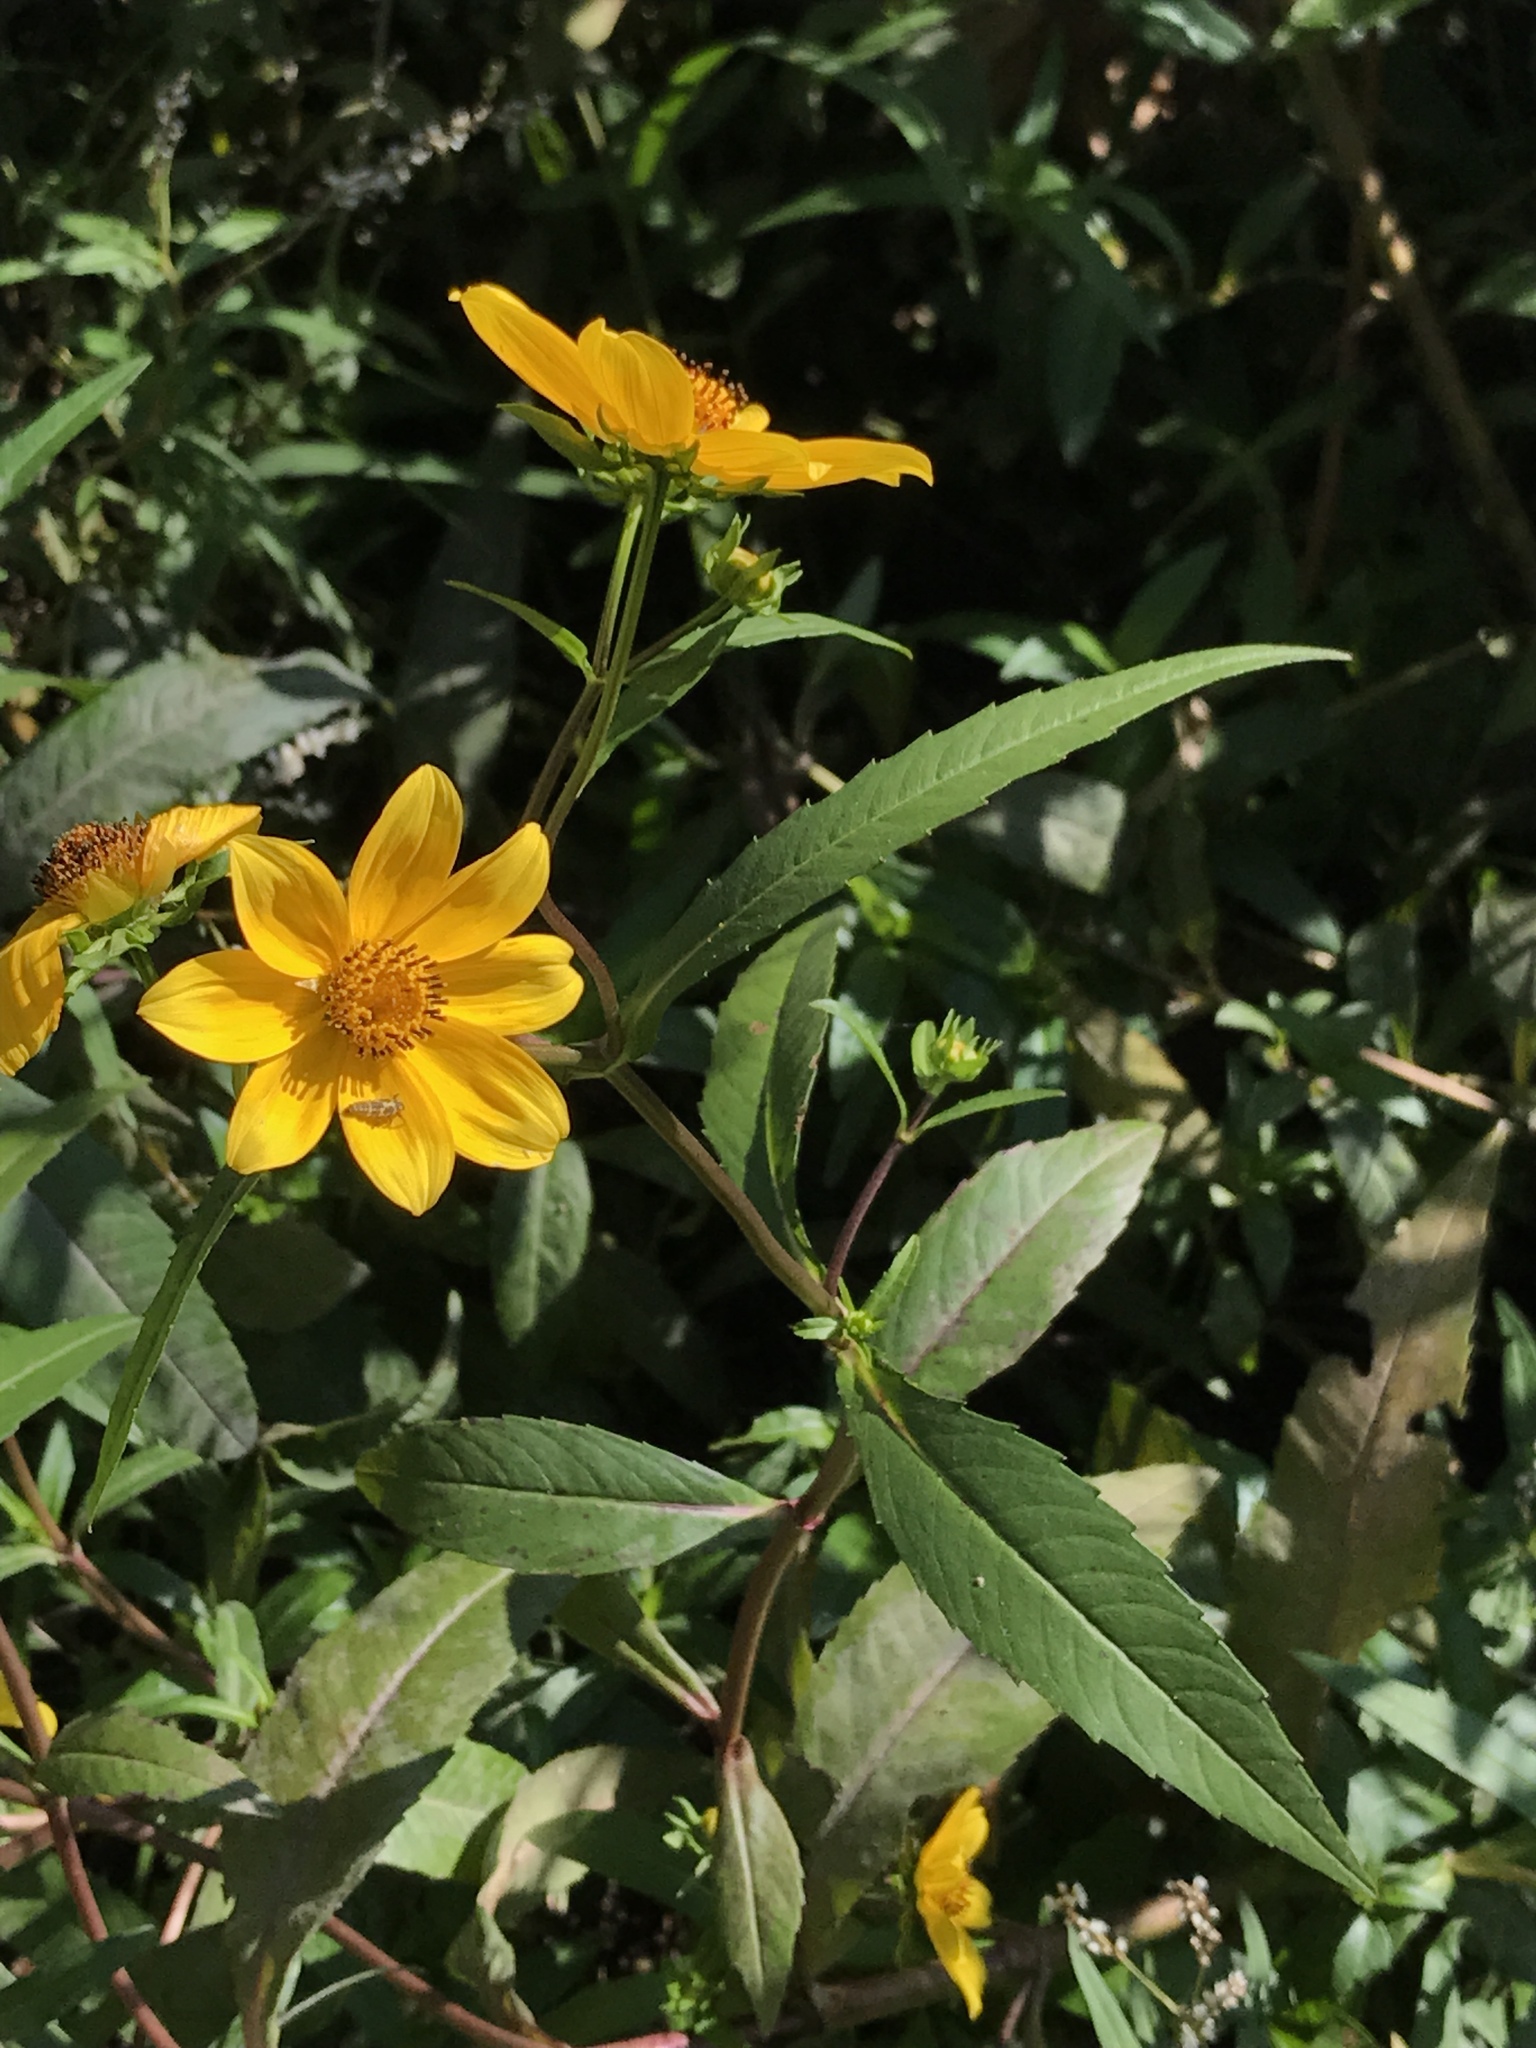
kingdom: Plantae
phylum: Tracheophyta
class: Magnoliopsida
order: Asterales
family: Asteraceae
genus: Bidens
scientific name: Bidens laevis
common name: Larger bur-marigold
